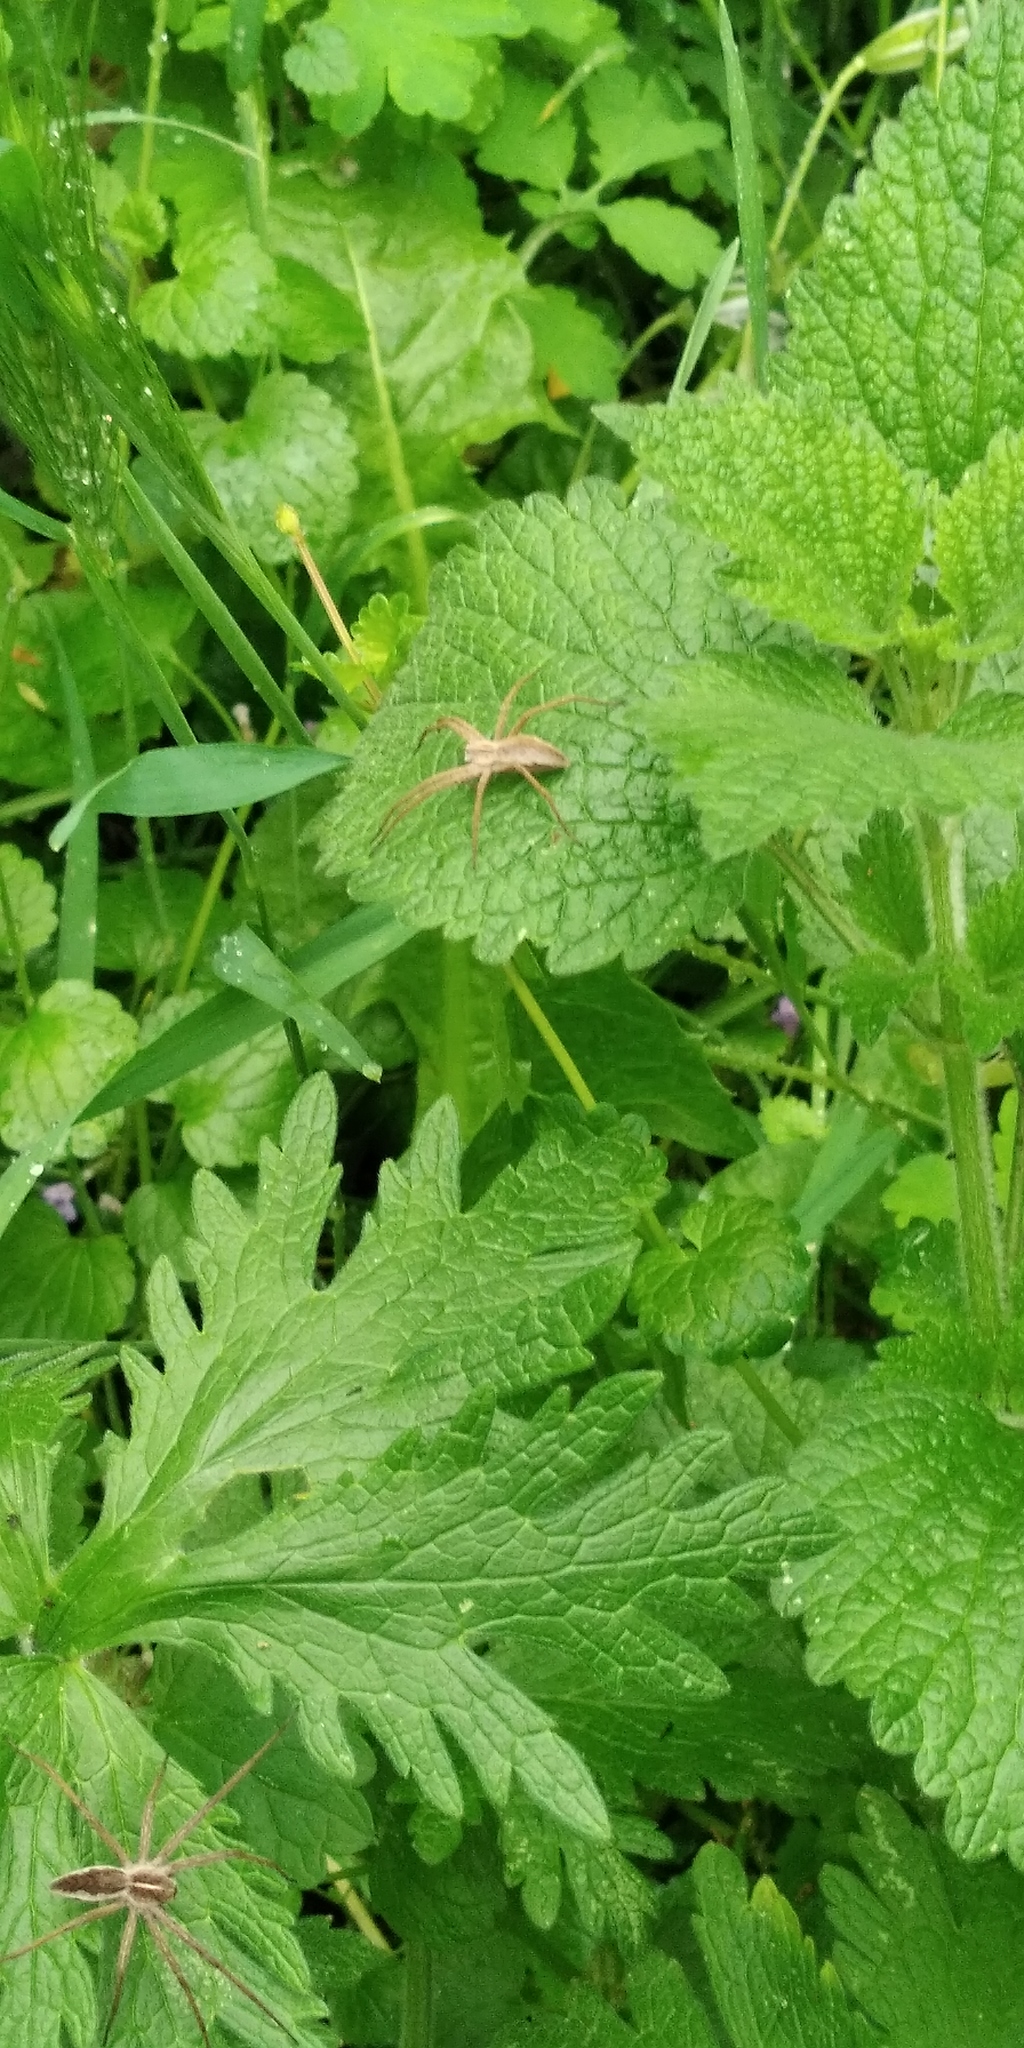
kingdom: Animalia
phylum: Arthropoda
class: Arachnida
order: Araneae
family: Pisauridae
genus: Pisaura
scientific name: Pisaura
